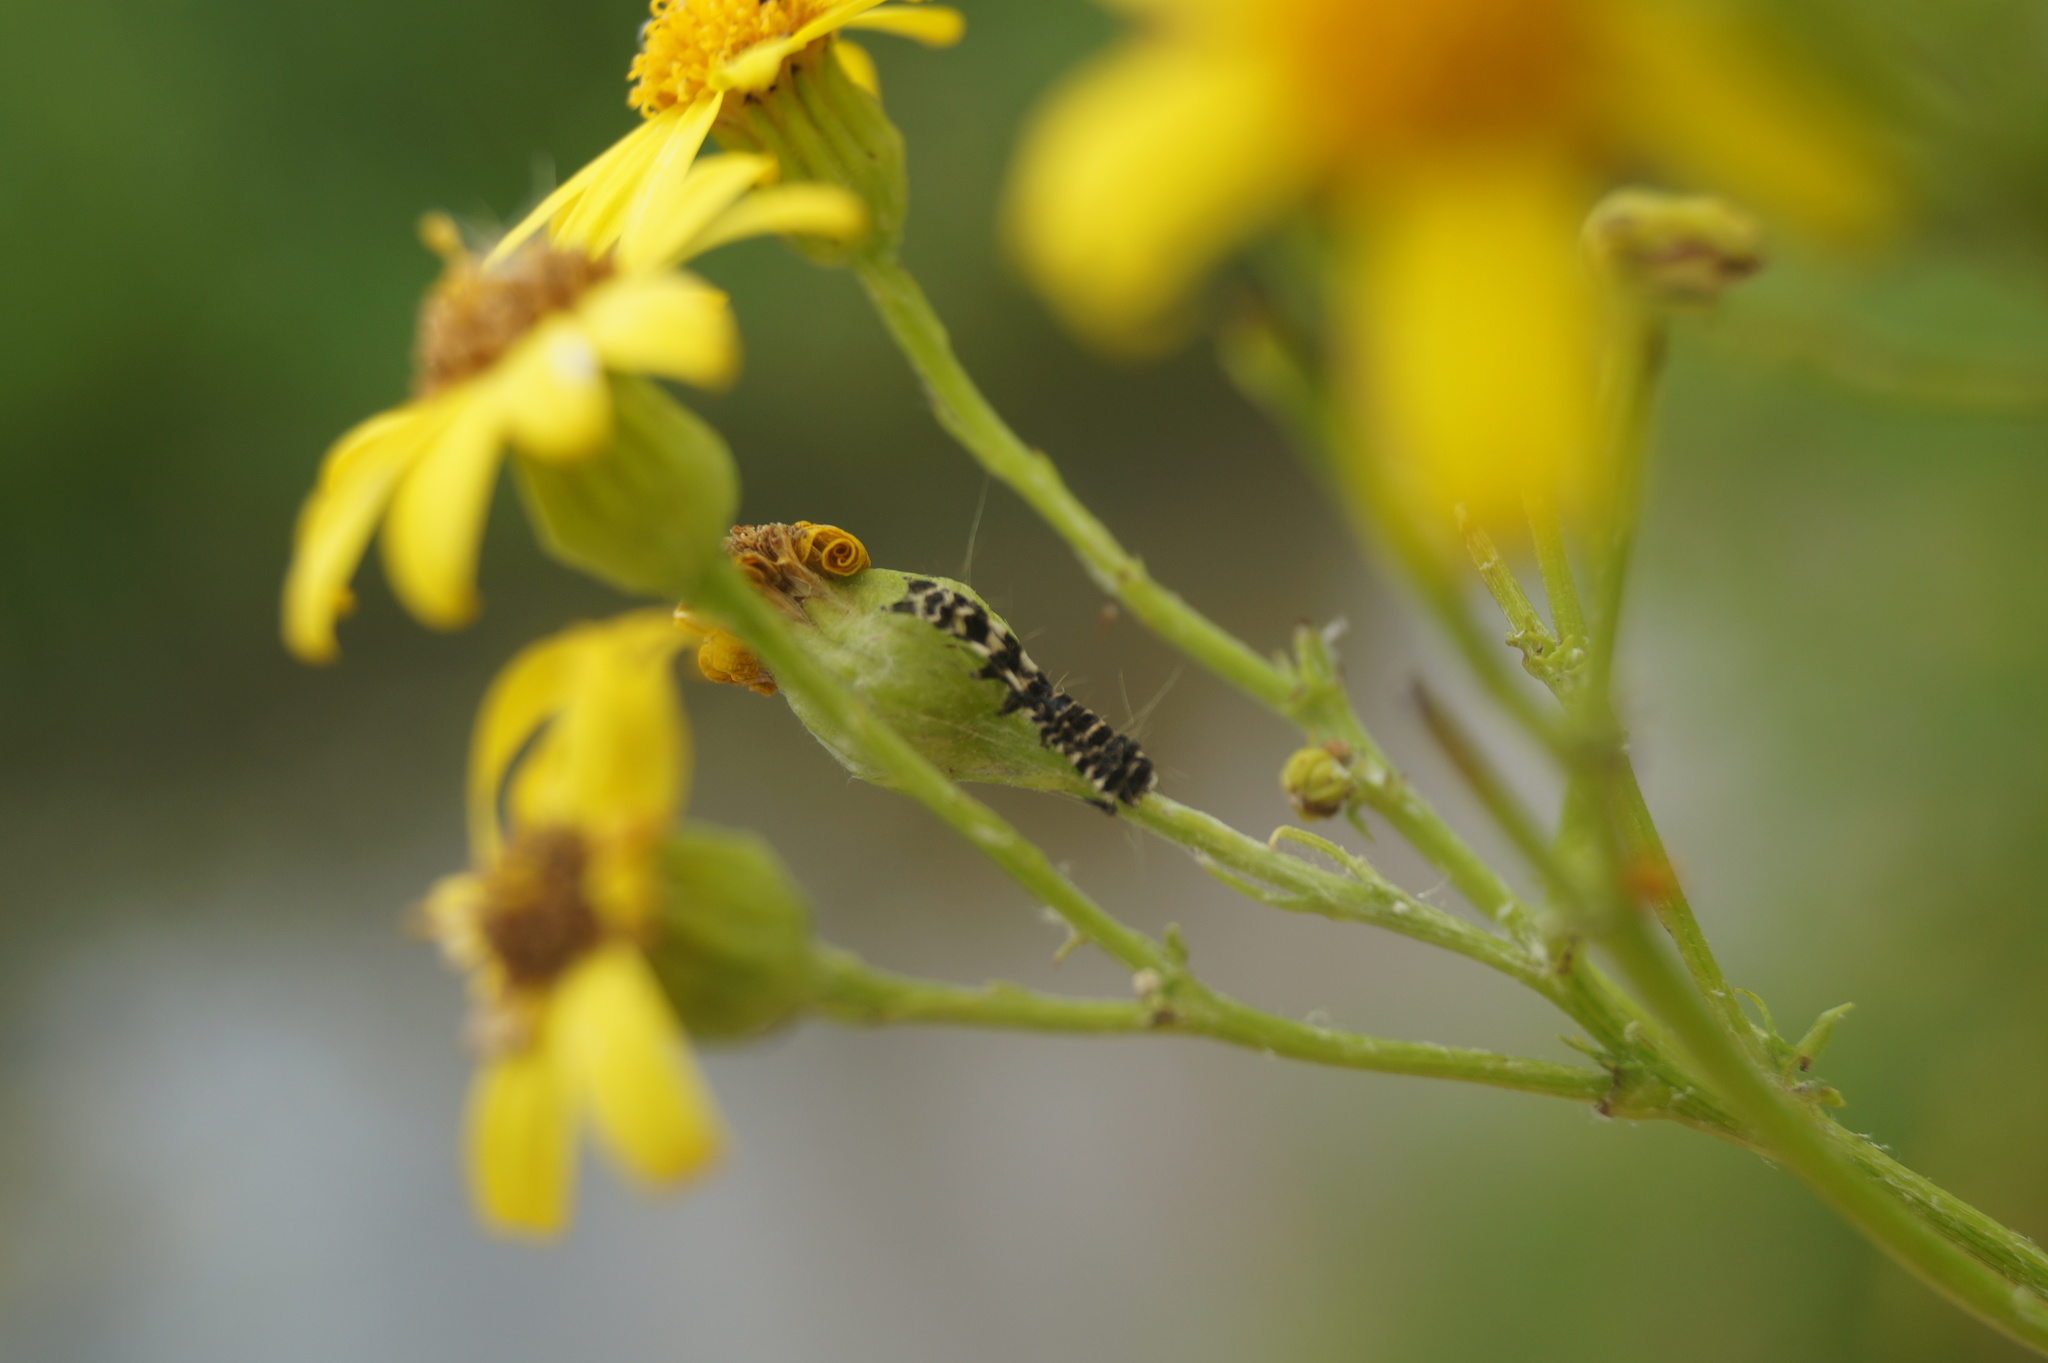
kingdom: Animalia
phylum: Arthropoda
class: Insecta
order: Lepidoptera
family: Erebidae
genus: Tyria
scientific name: Tyria jacobaeae
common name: Cinnabar
